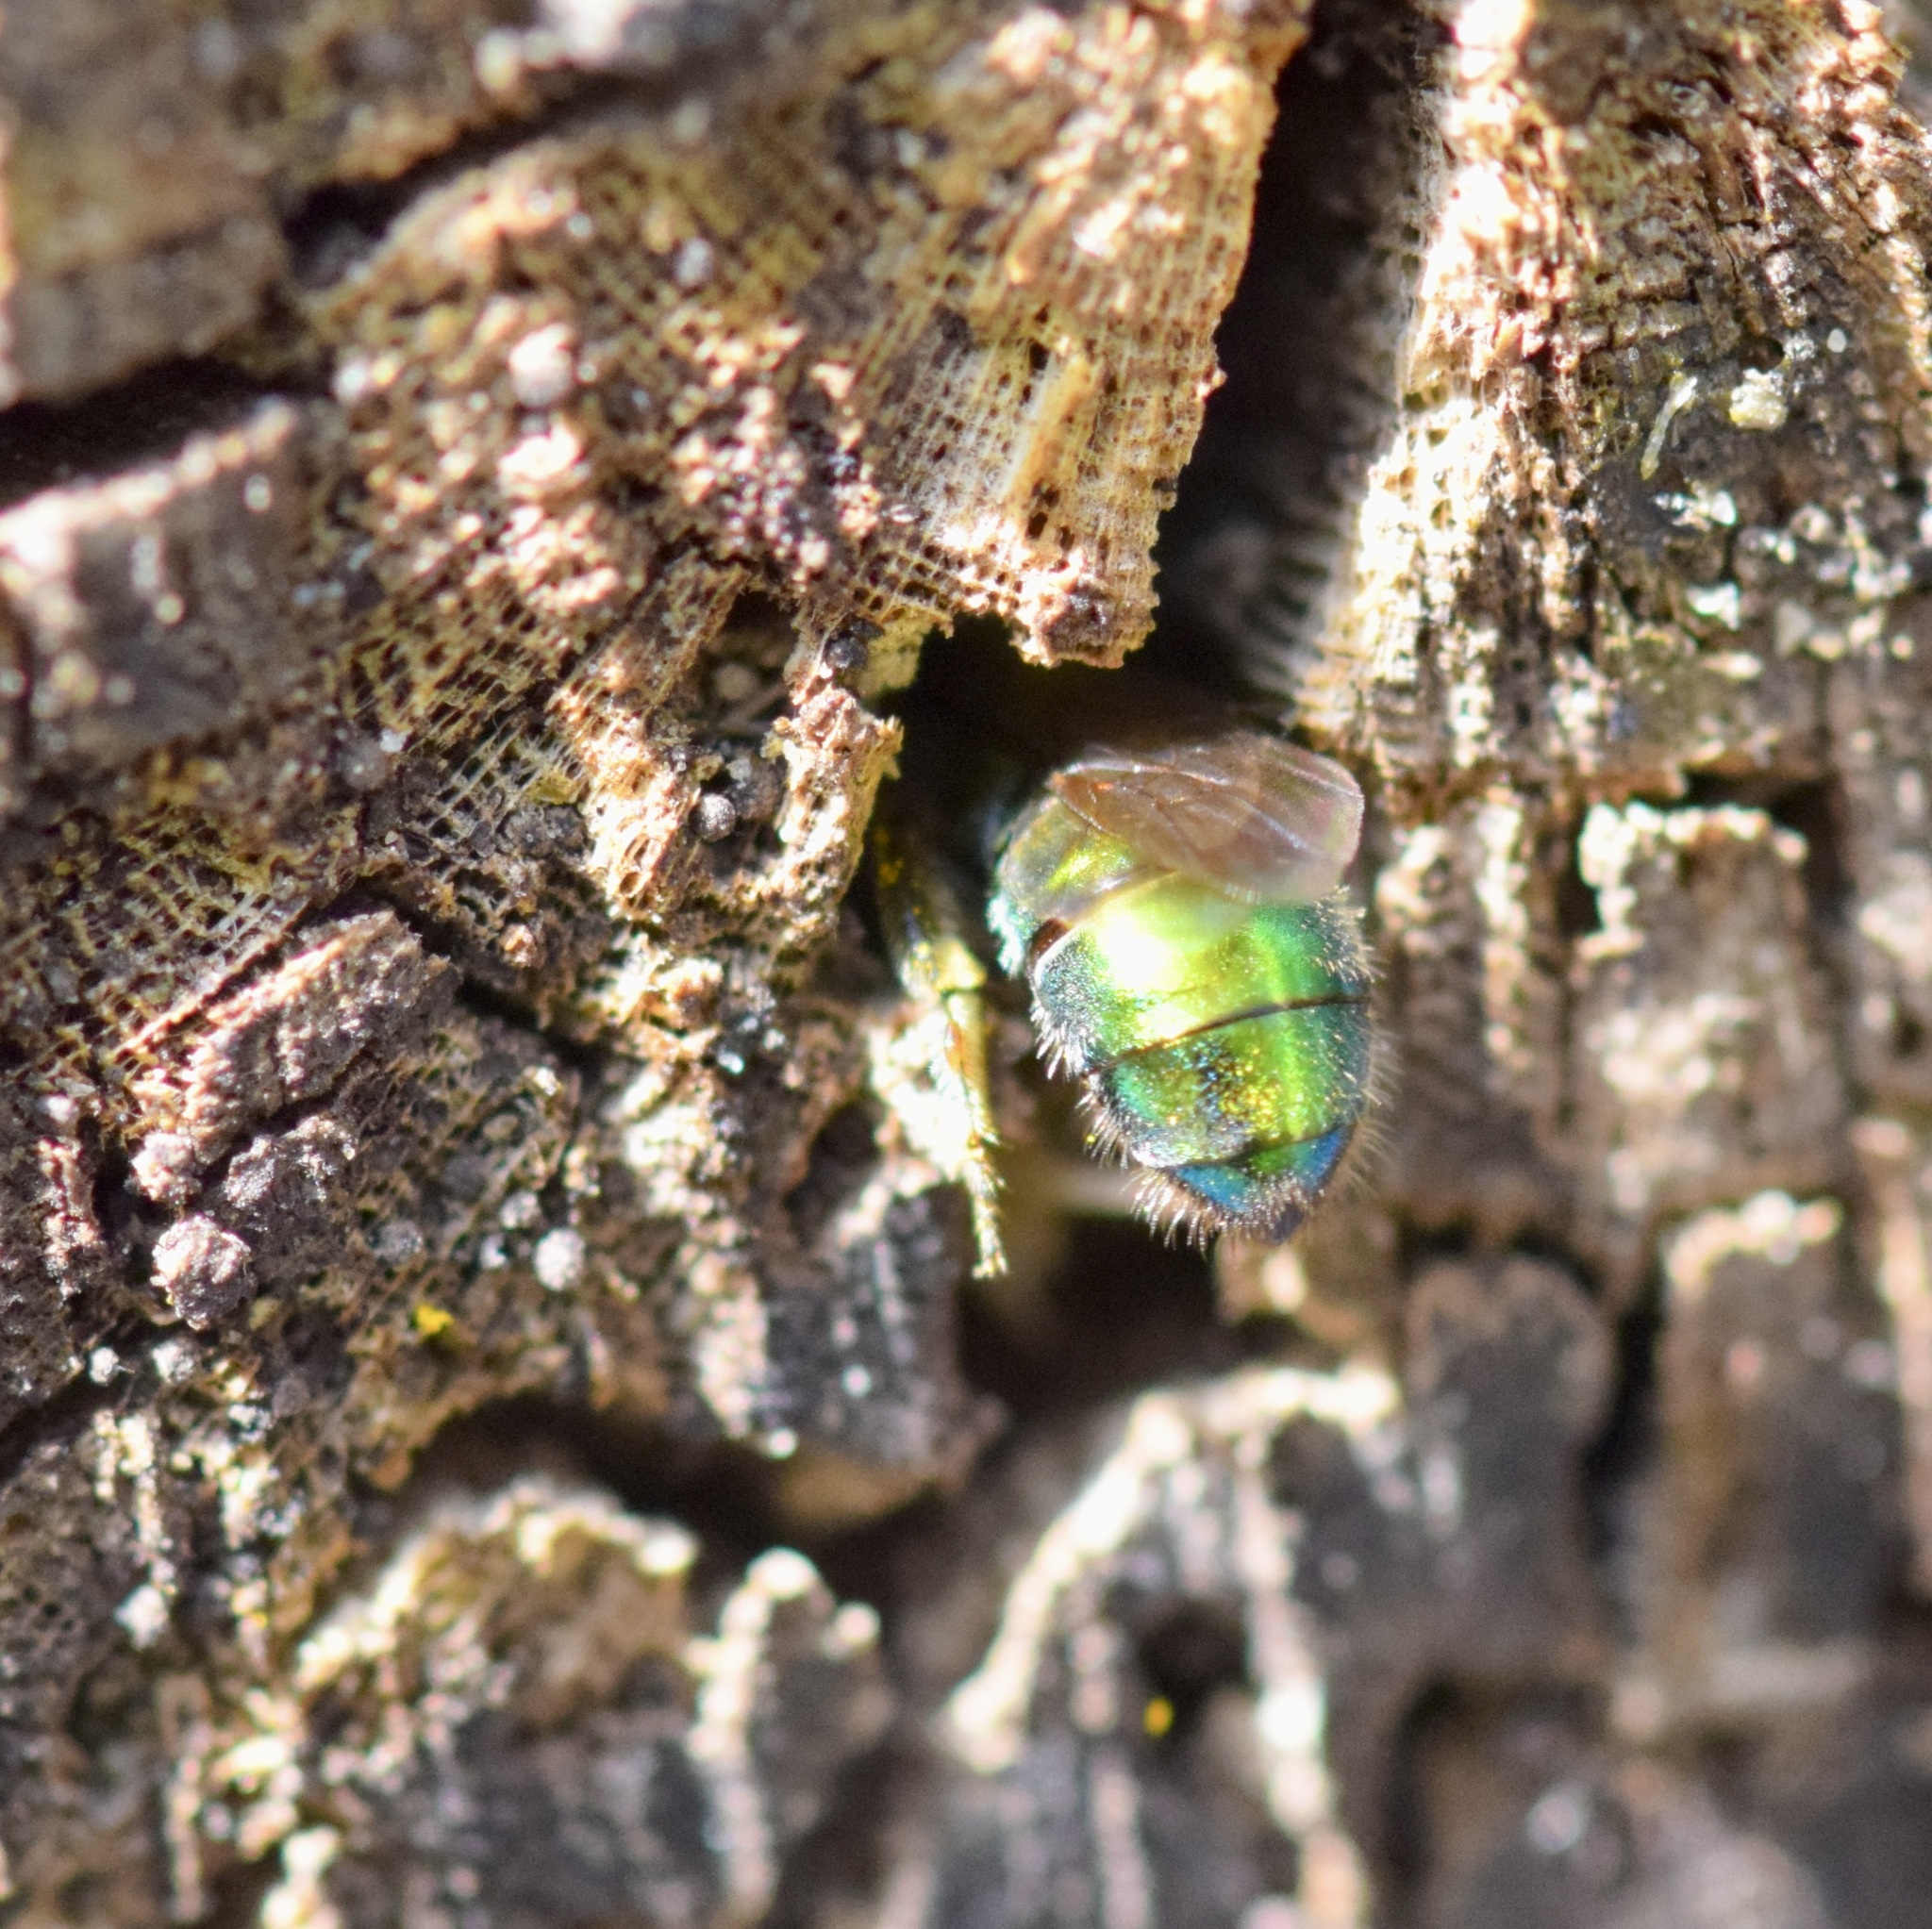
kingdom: Animalia
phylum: Arthropoda
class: Insecta
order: Hymenoptera
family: Halictidae
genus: Augochlora
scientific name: Augochlora pura
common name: Pure green sweat bee
